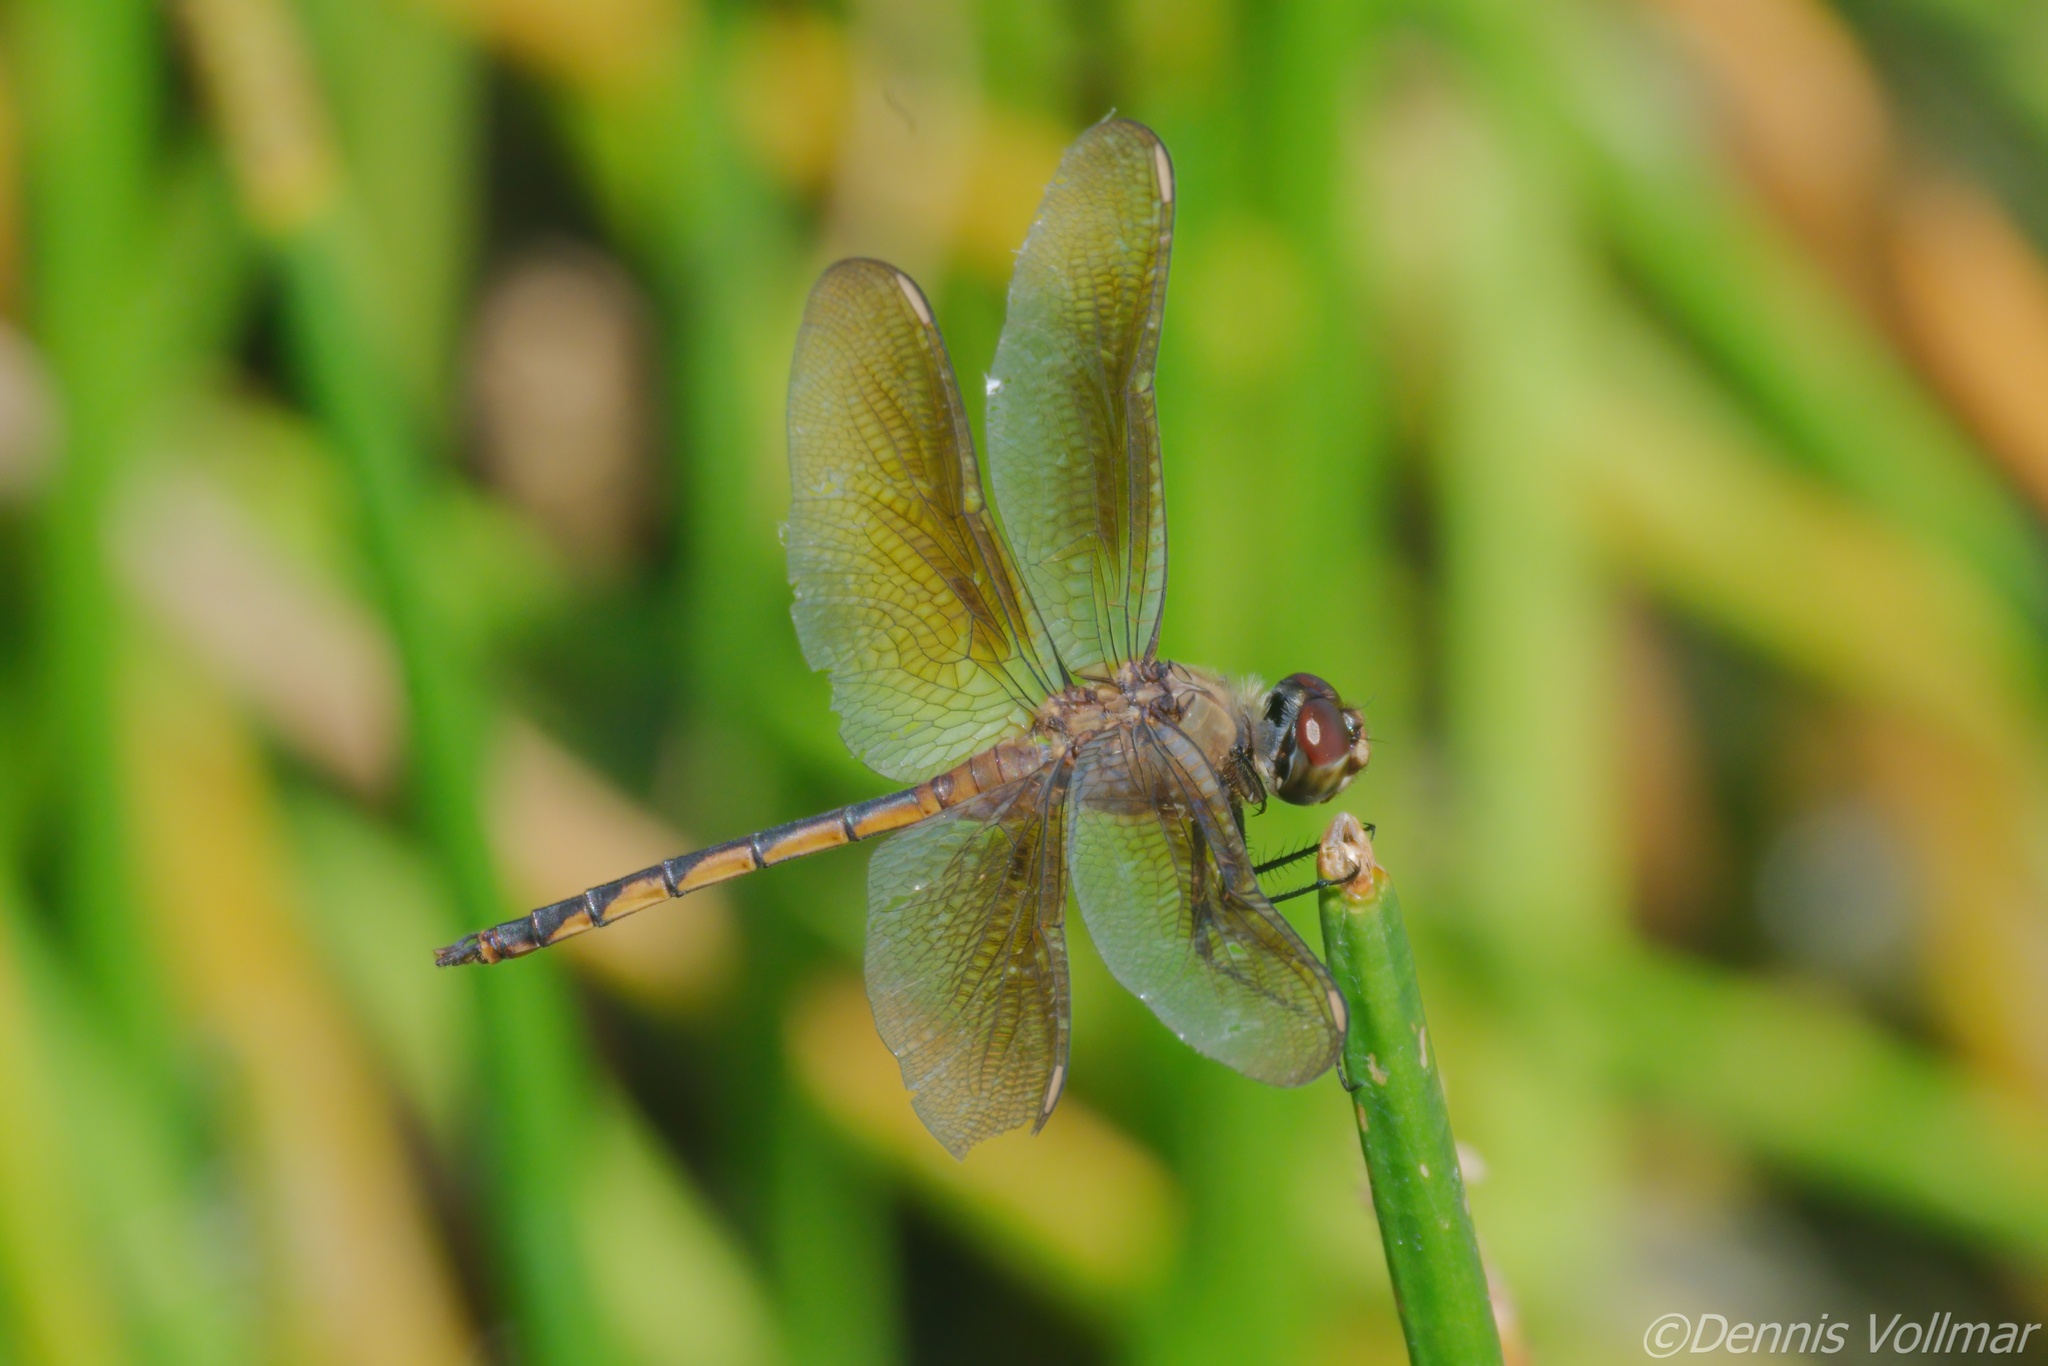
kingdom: Animalia
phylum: Arthropoda
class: Insecta
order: Odonata
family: Libellulidae
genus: Brachymesia
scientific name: Brachymesia herbida
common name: Tawny pennant
